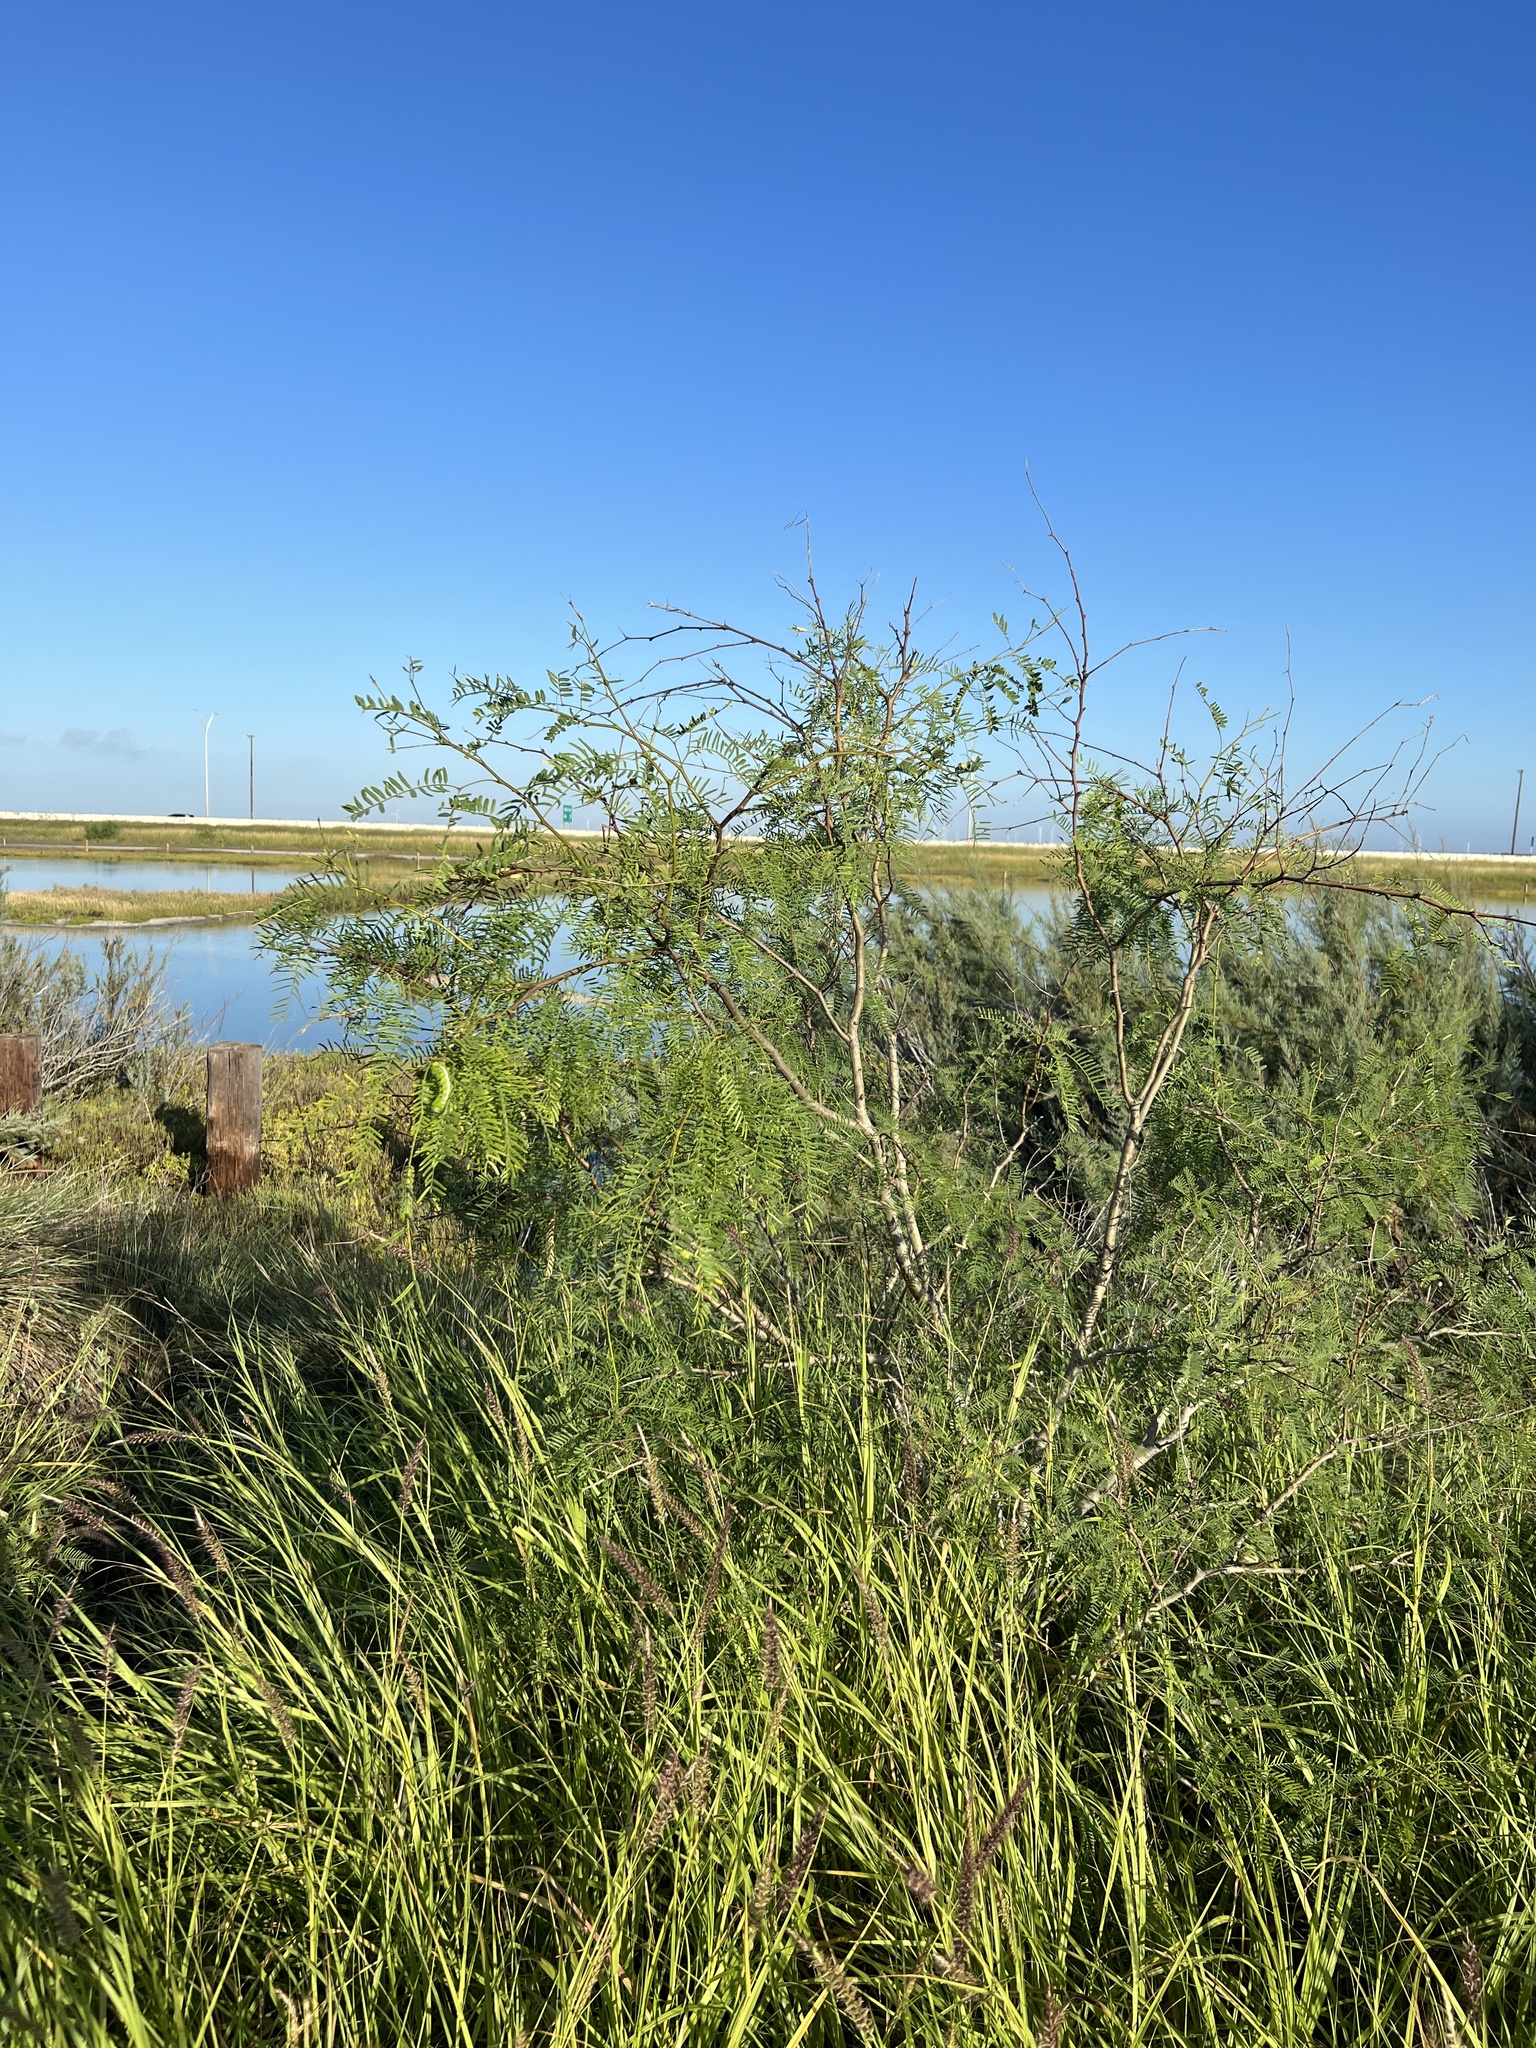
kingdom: Plantae
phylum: Tracheophyta
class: Magnoliopsida
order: Fabales
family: Fabaceae
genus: Prosopis
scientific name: Prosopis glandulosa
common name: Honey mesquite
